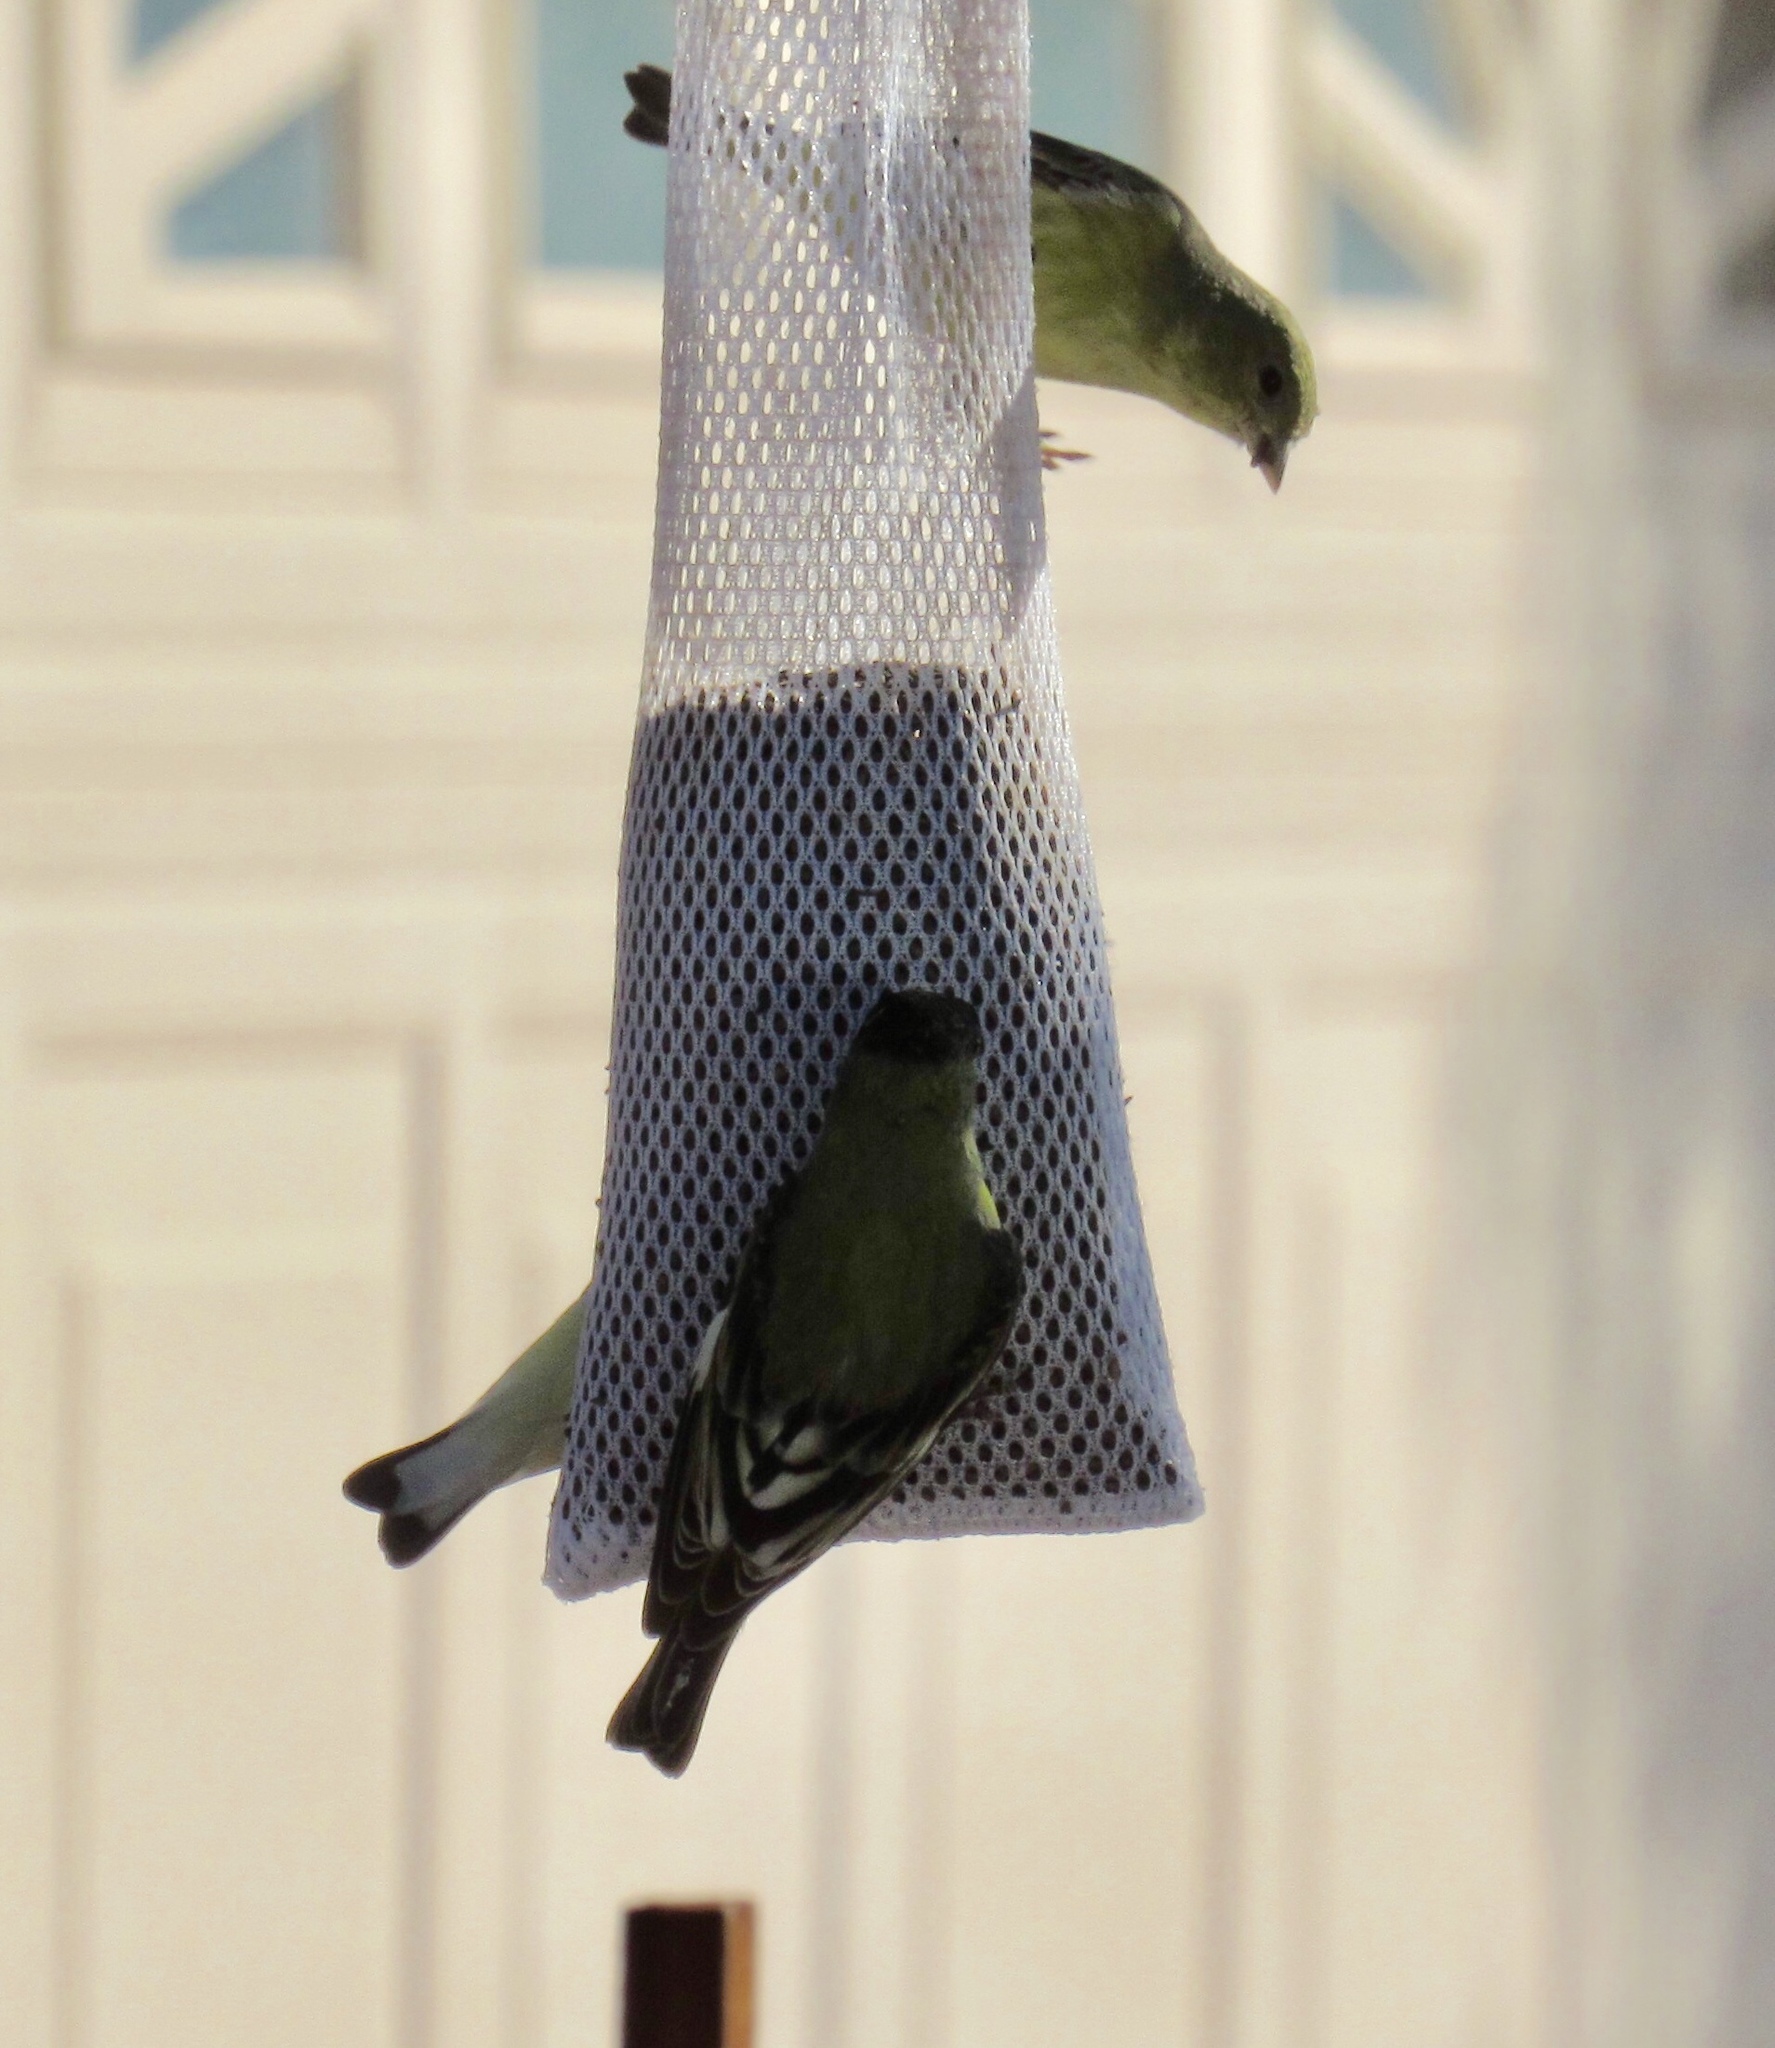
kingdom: Animalia
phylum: Chordata
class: Aves
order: Passeriformes
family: Fringillidae
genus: Spinus
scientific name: Spinus psaltria
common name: Lesser goldfinch
